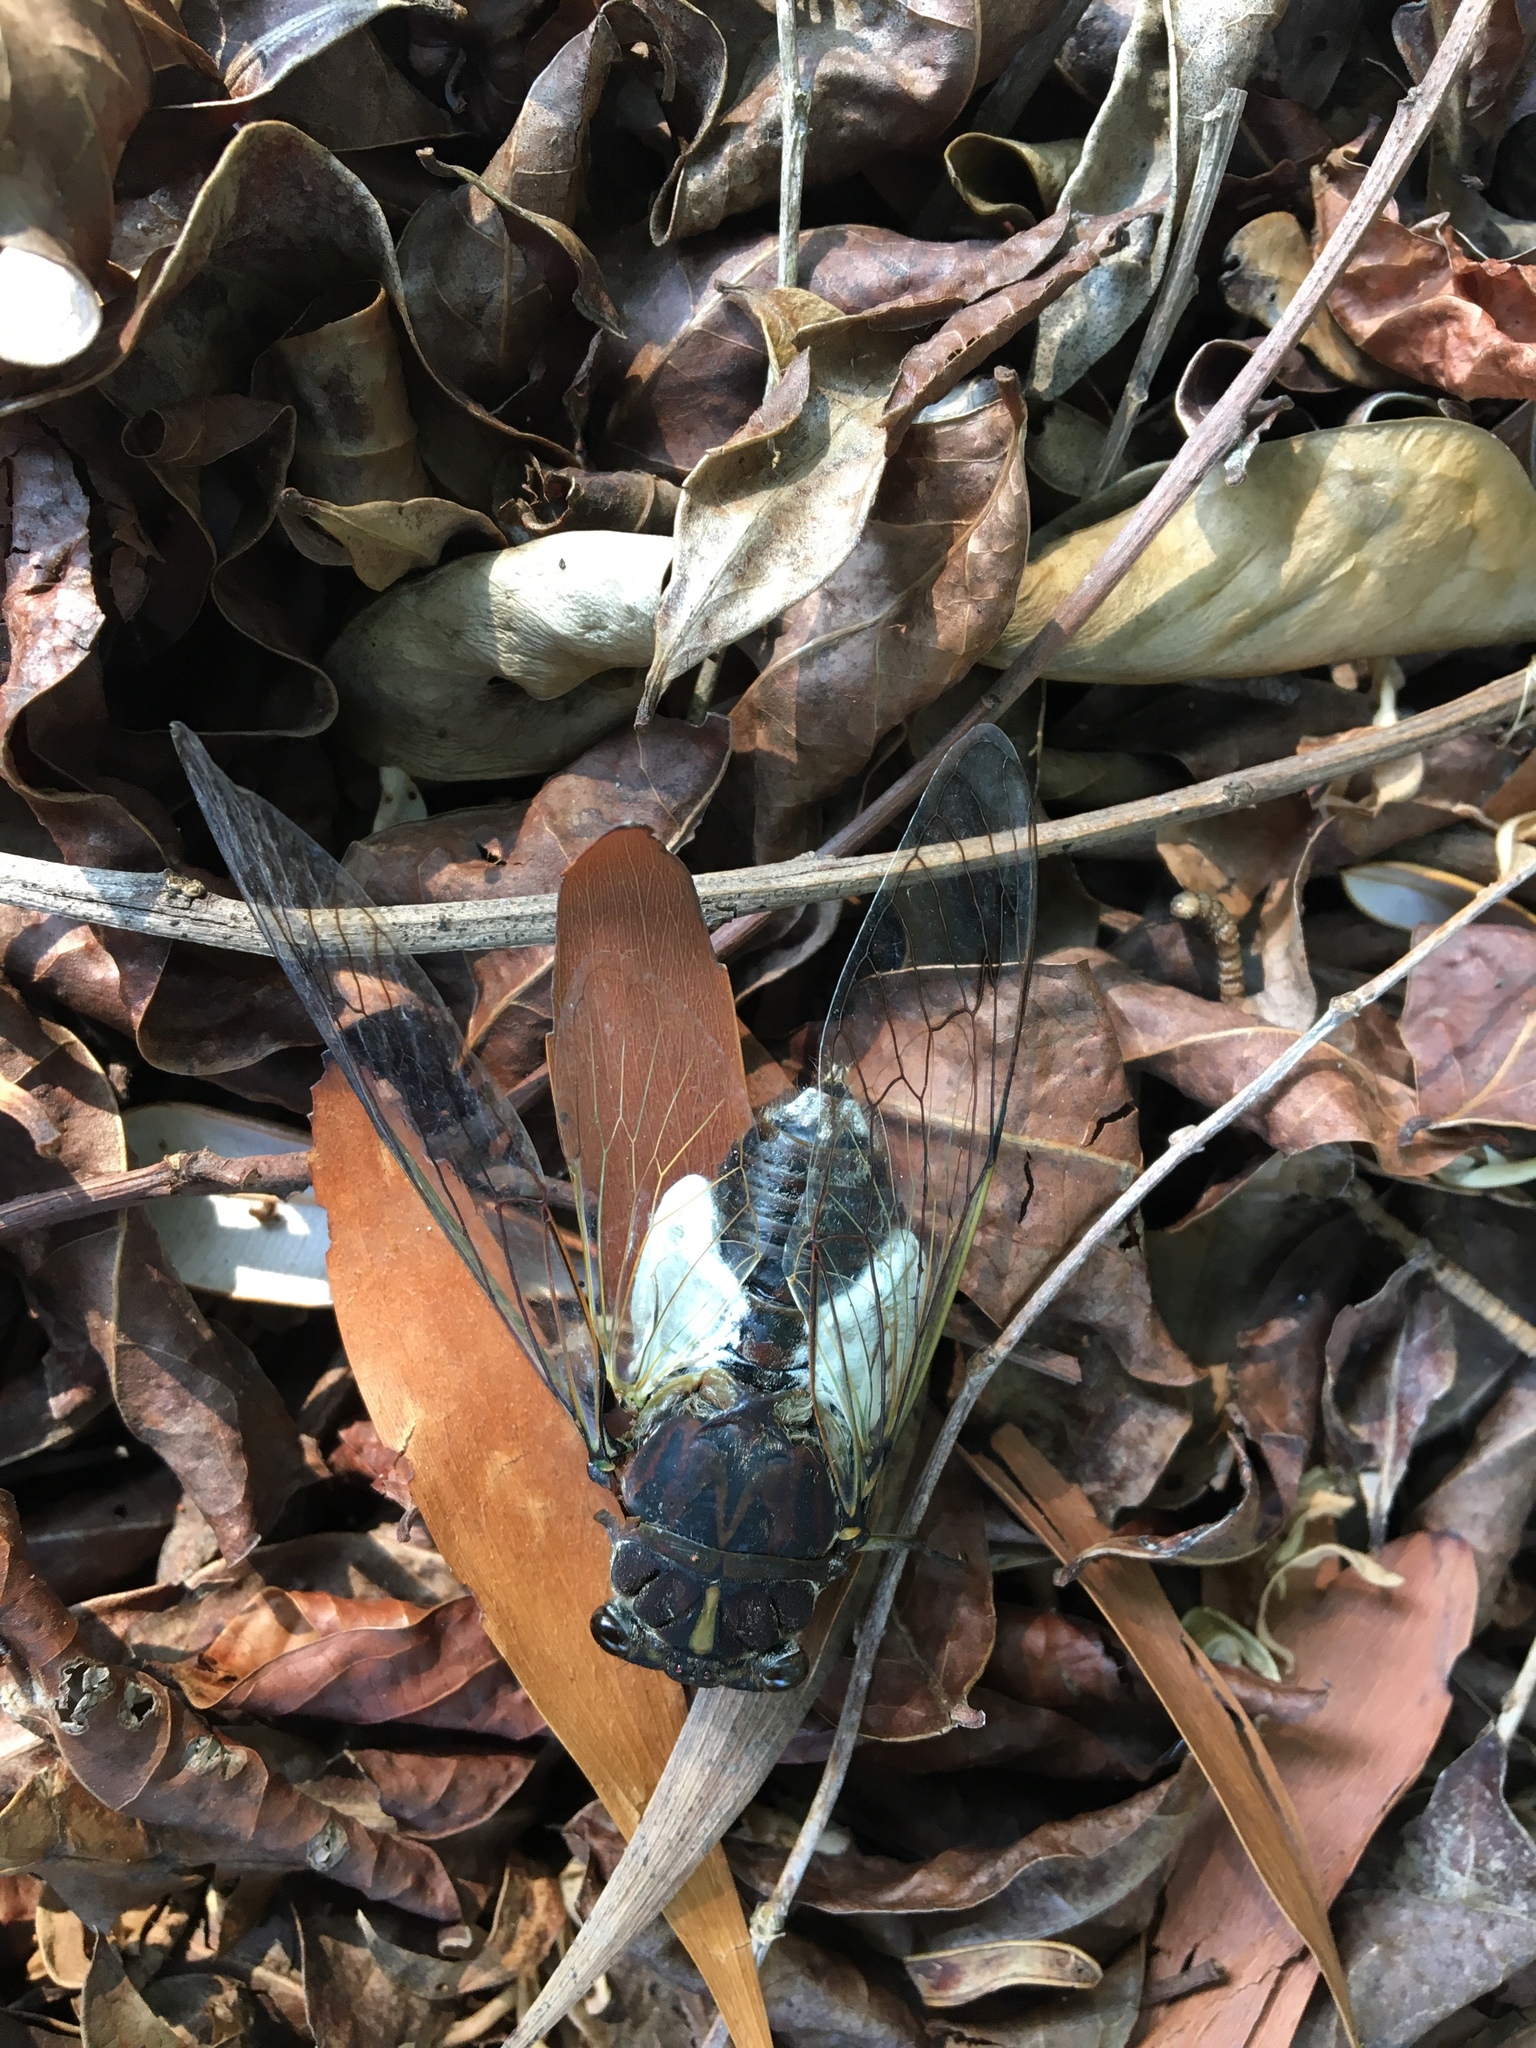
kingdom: Animalia
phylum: Arthropoda
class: Insecta
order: Hemiptera
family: Cicadidae
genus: Arunta
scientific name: Arunta perulata
